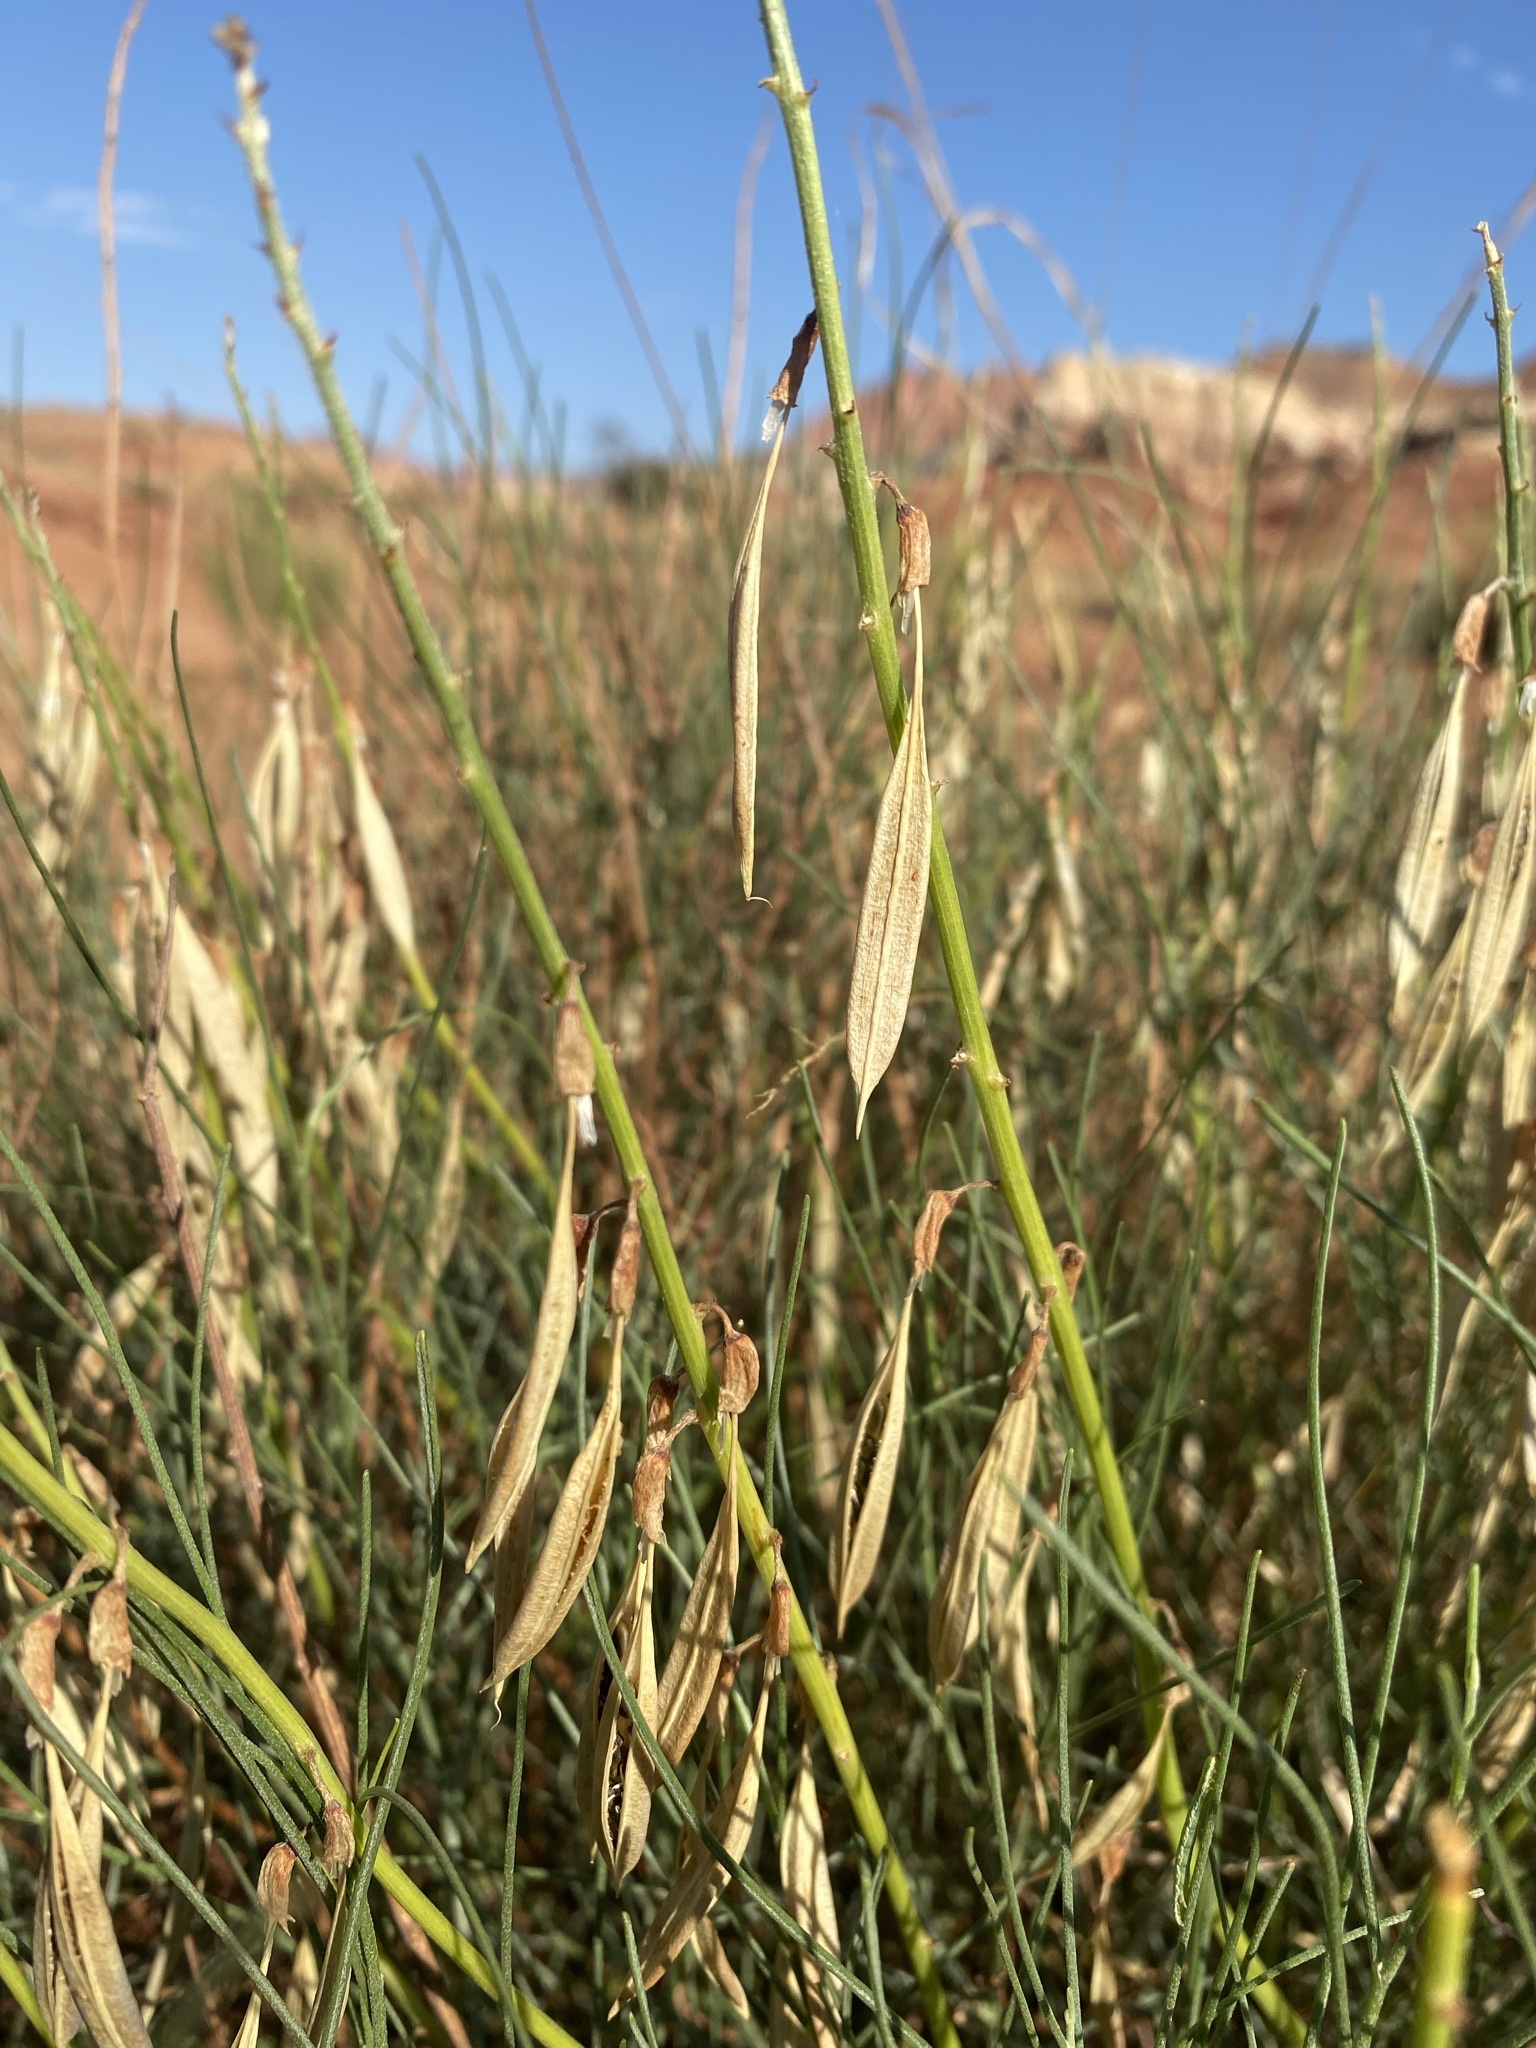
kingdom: Plantae
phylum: Tracheophyta
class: Magnoliopsida
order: Fabales
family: Fabaceae
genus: Astragalus
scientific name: Astragalus lonchocarpus
